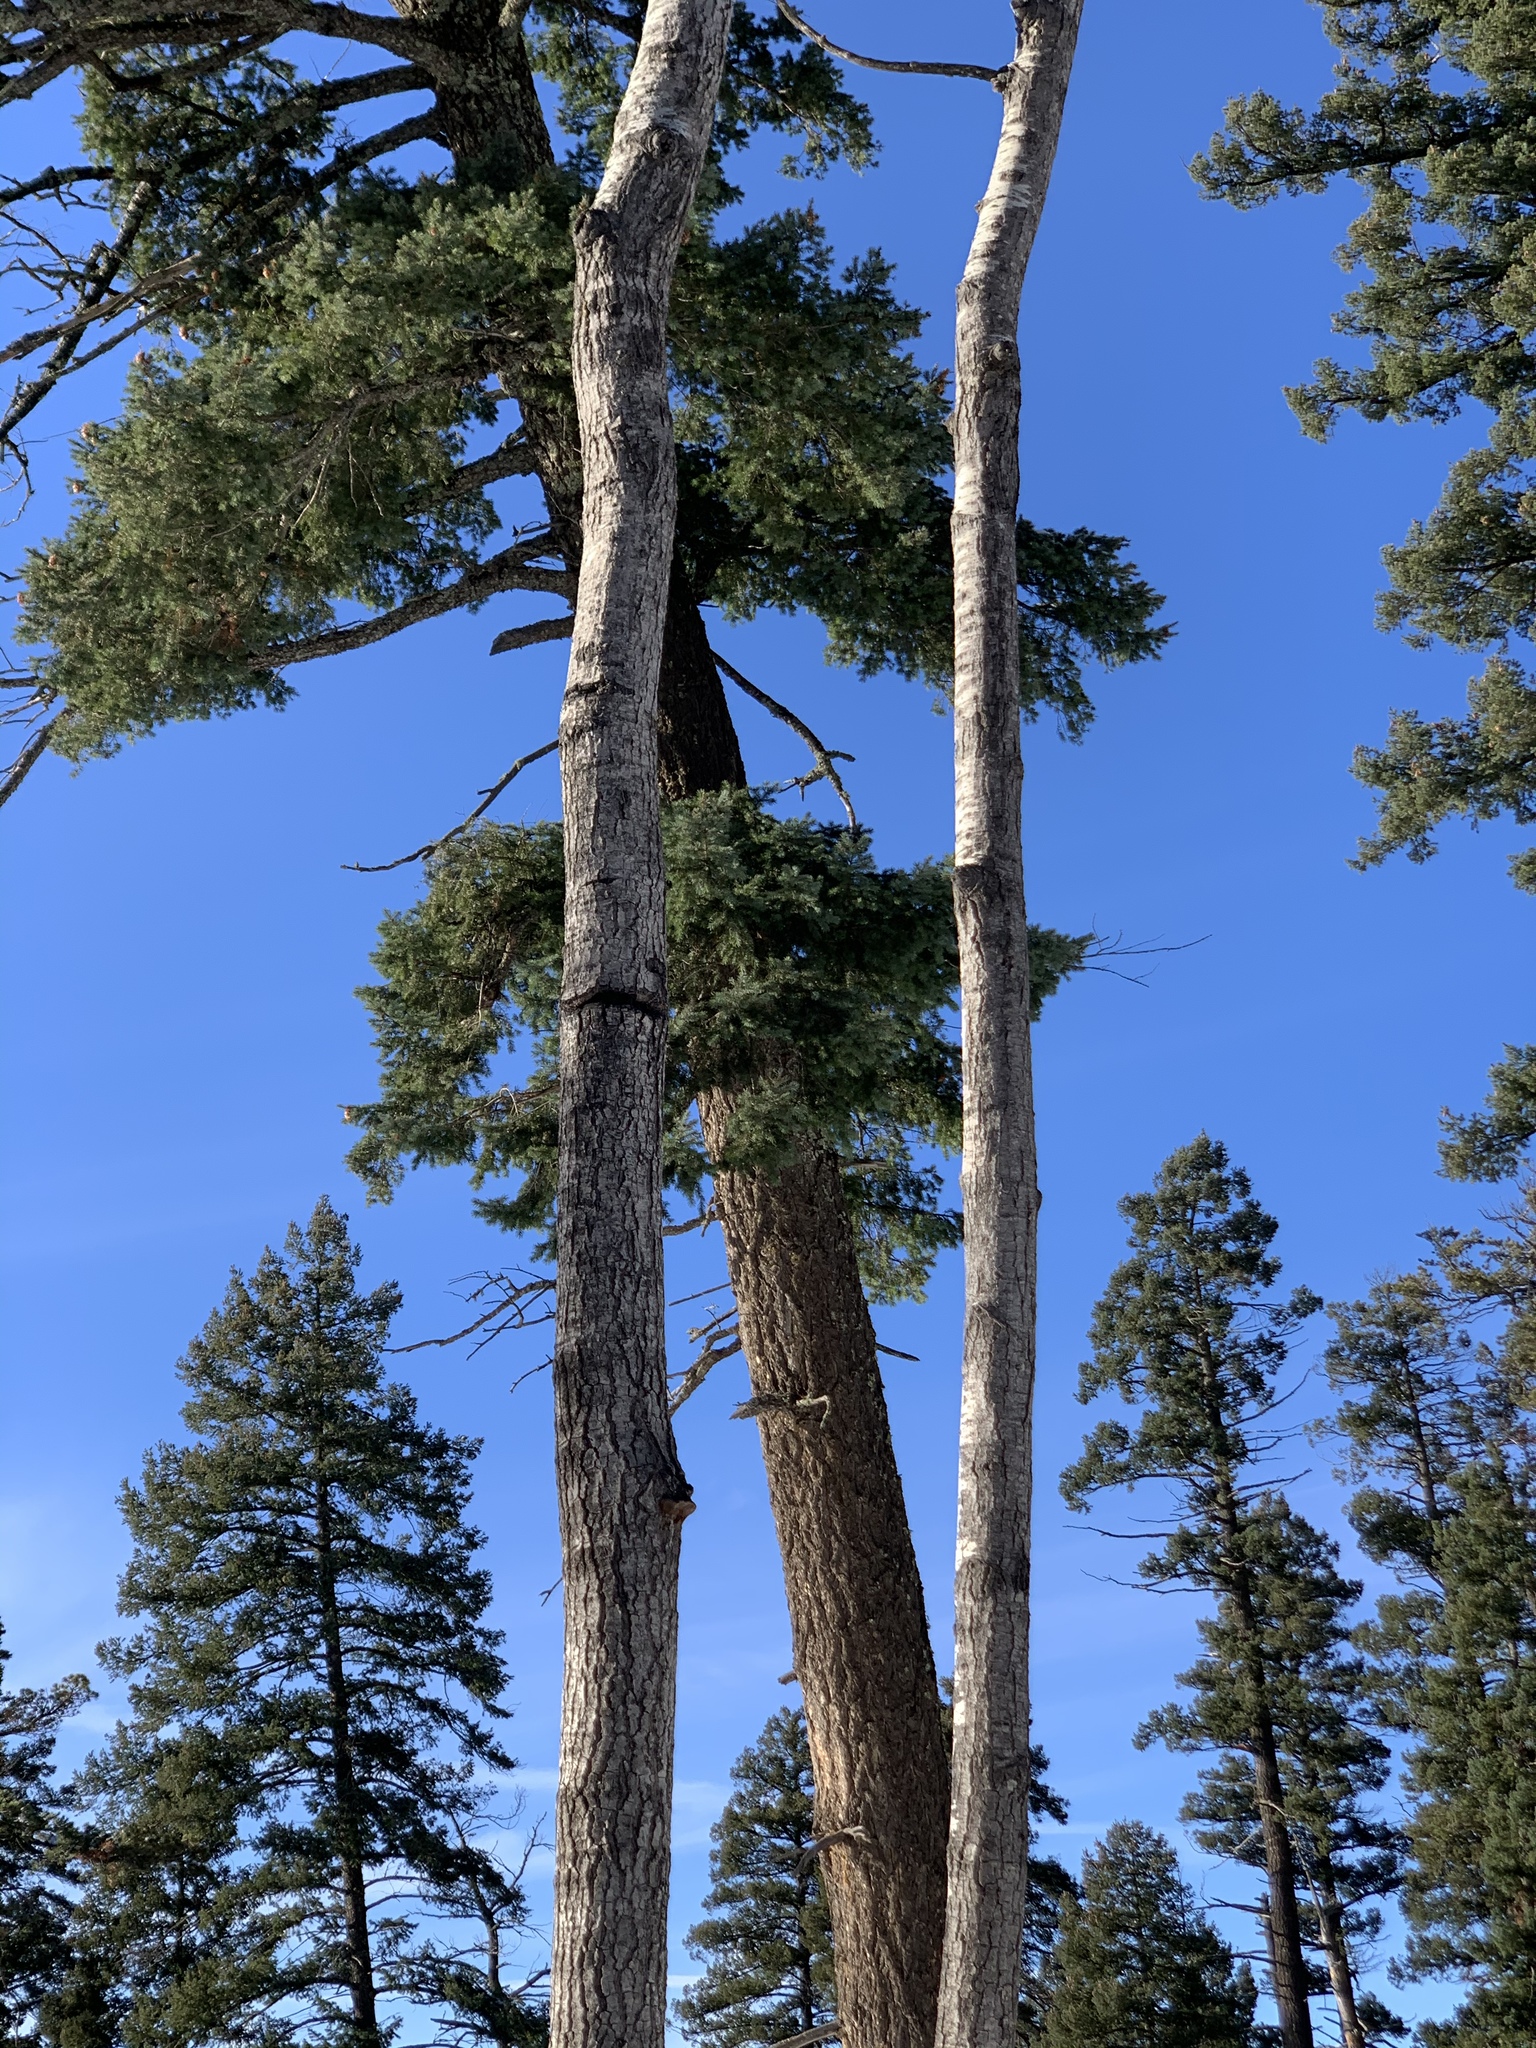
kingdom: Plantae
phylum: Tracheophyta
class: Magnoliopsida
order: Malpighiales
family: Salicaceae
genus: Populus
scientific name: Populus tremuloides
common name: Quaking aspen
